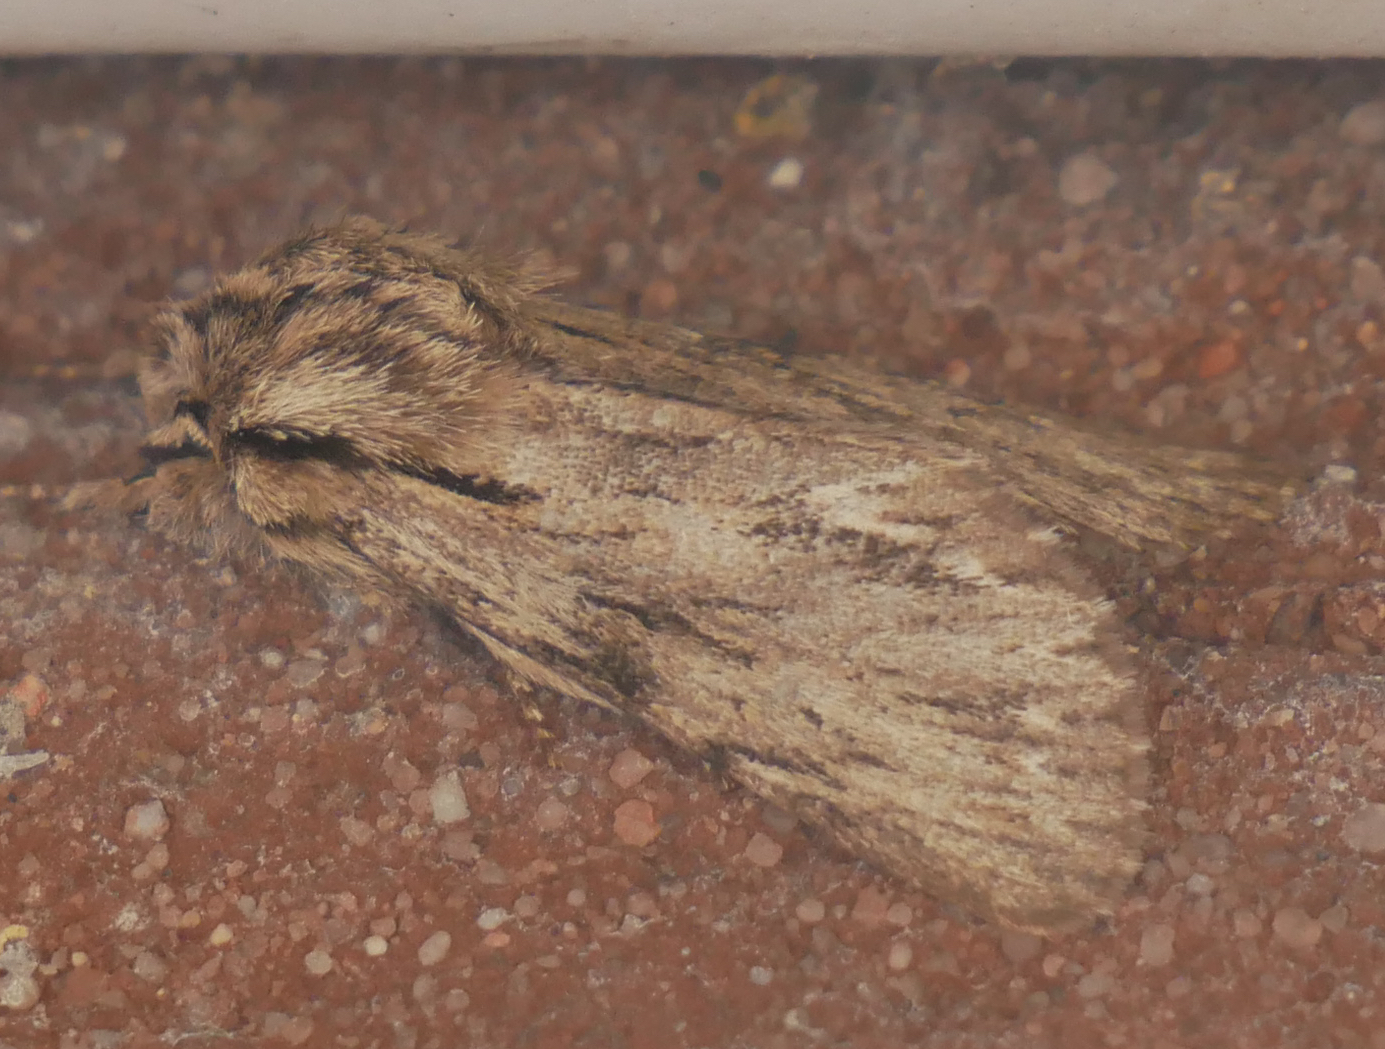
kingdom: Animalia
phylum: Arthropoda
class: Insecta
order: Lepidoptera
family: Noctuidae
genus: Asteroscopus
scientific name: Asteroscopus sphinx
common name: The sprawler
